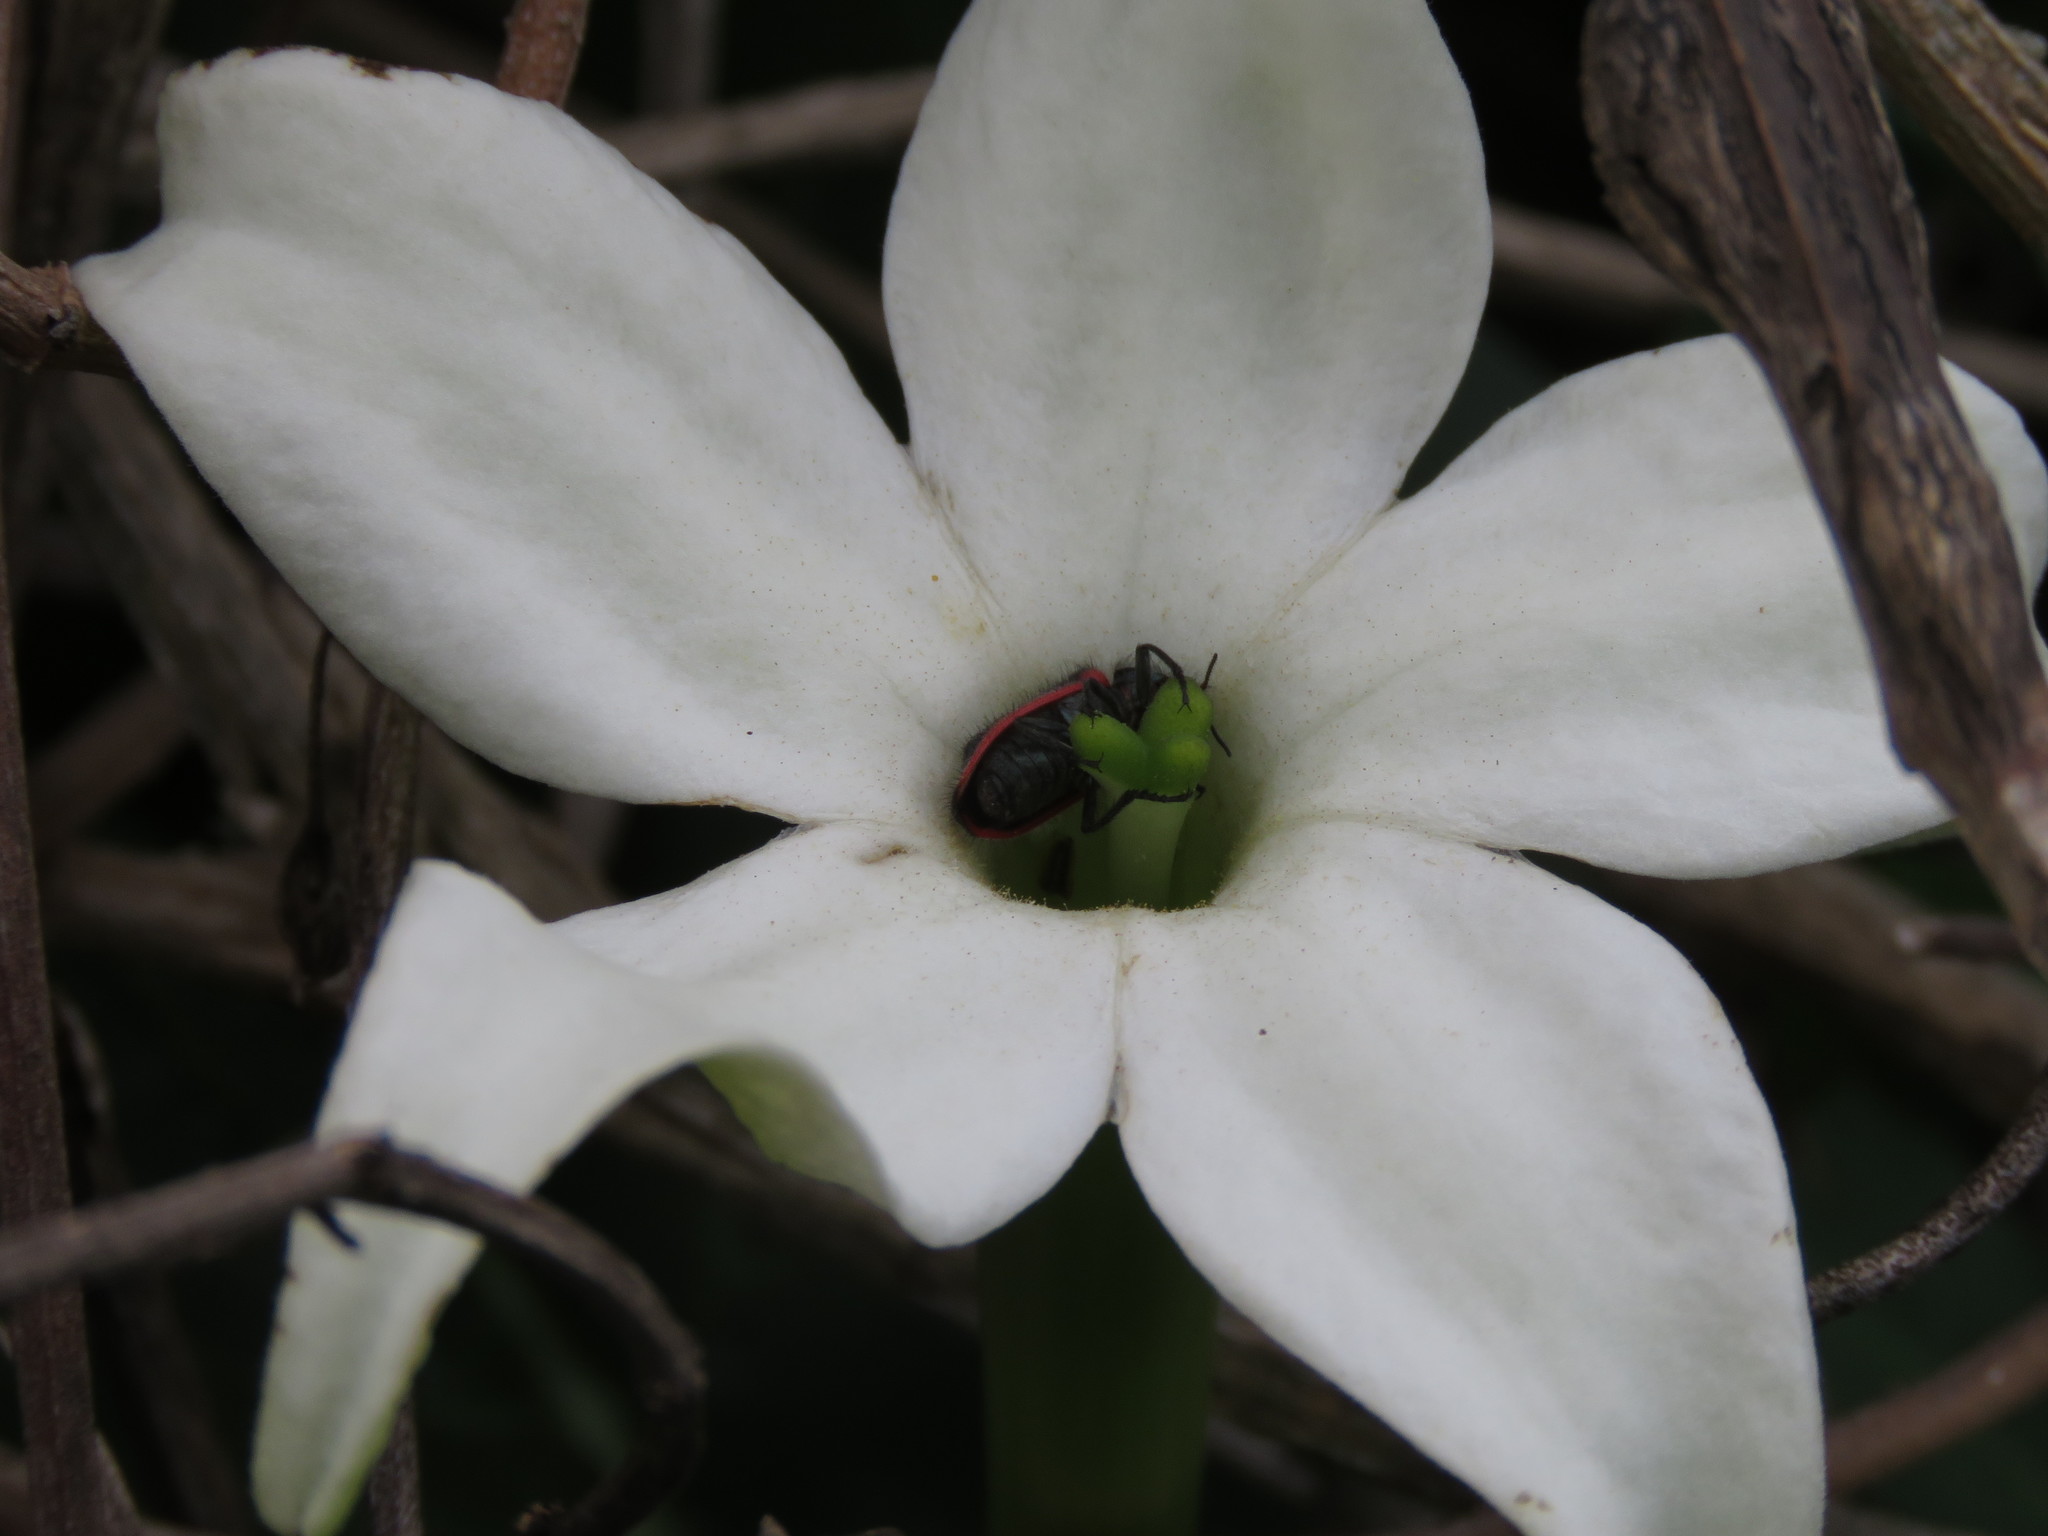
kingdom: Plantae
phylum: Tracheophyta
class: Magnoliopsida
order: Solanales
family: Solanaceae
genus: Jaborosa
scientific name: Jaborosa integrifolia
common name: Springblossom
